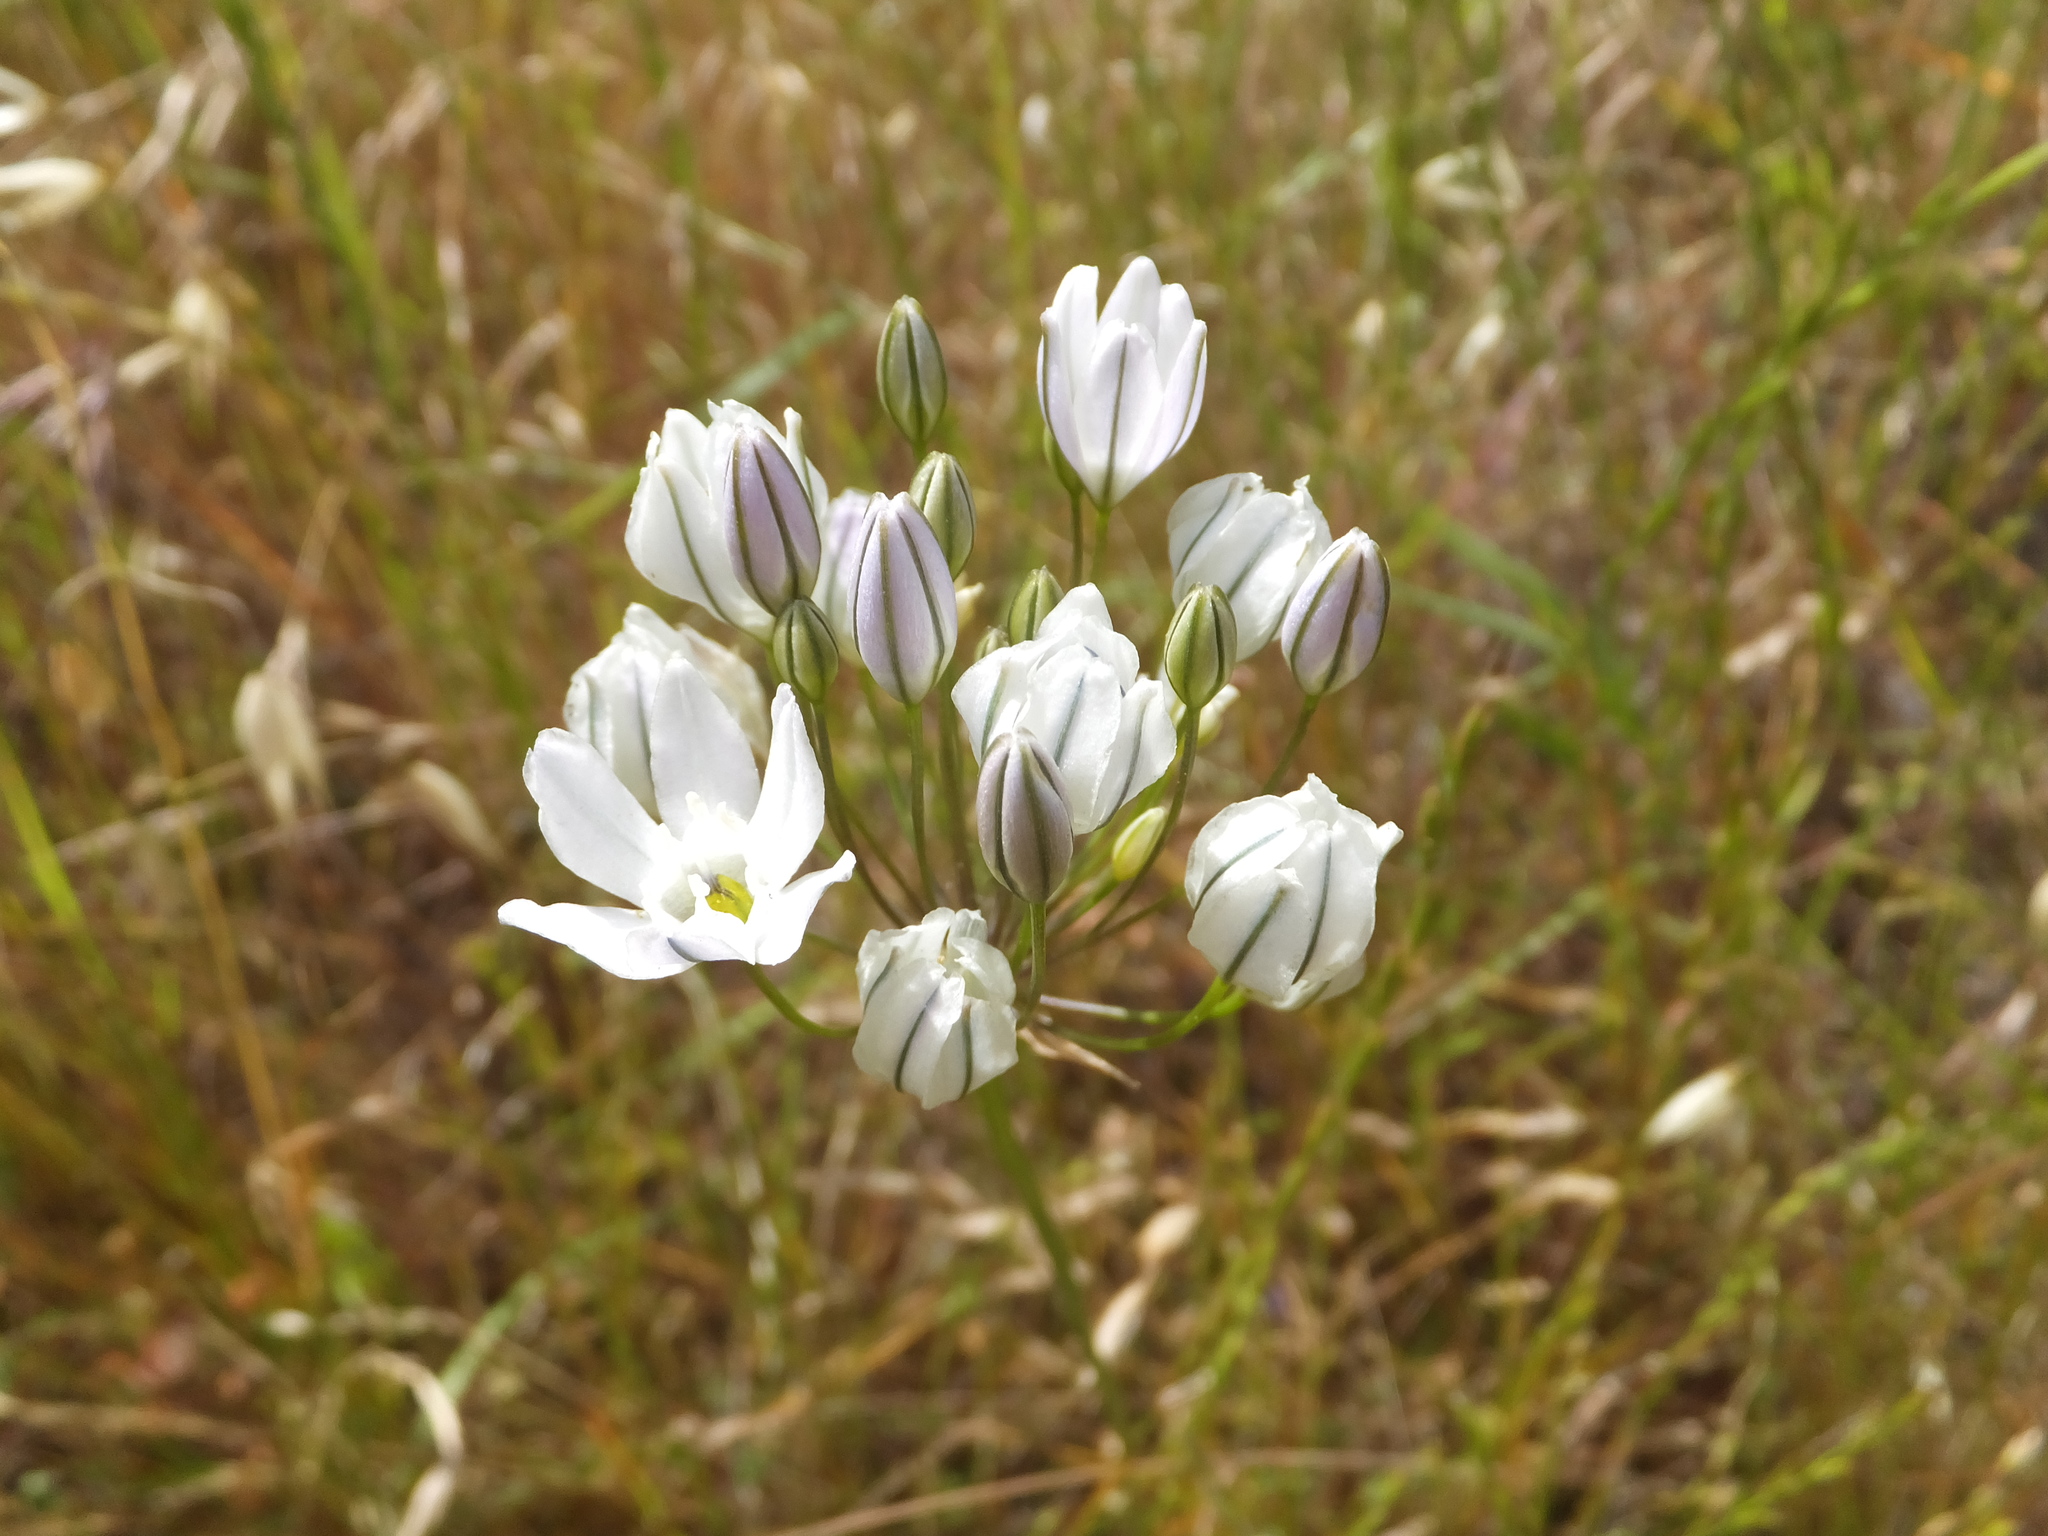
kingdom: Plantae
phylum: Tracheophyta
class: Liliopsida
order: Asparagales
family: Asparagaceae
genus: Triteleia
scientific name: Triteleia hyacinthina
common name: White brodiaea
